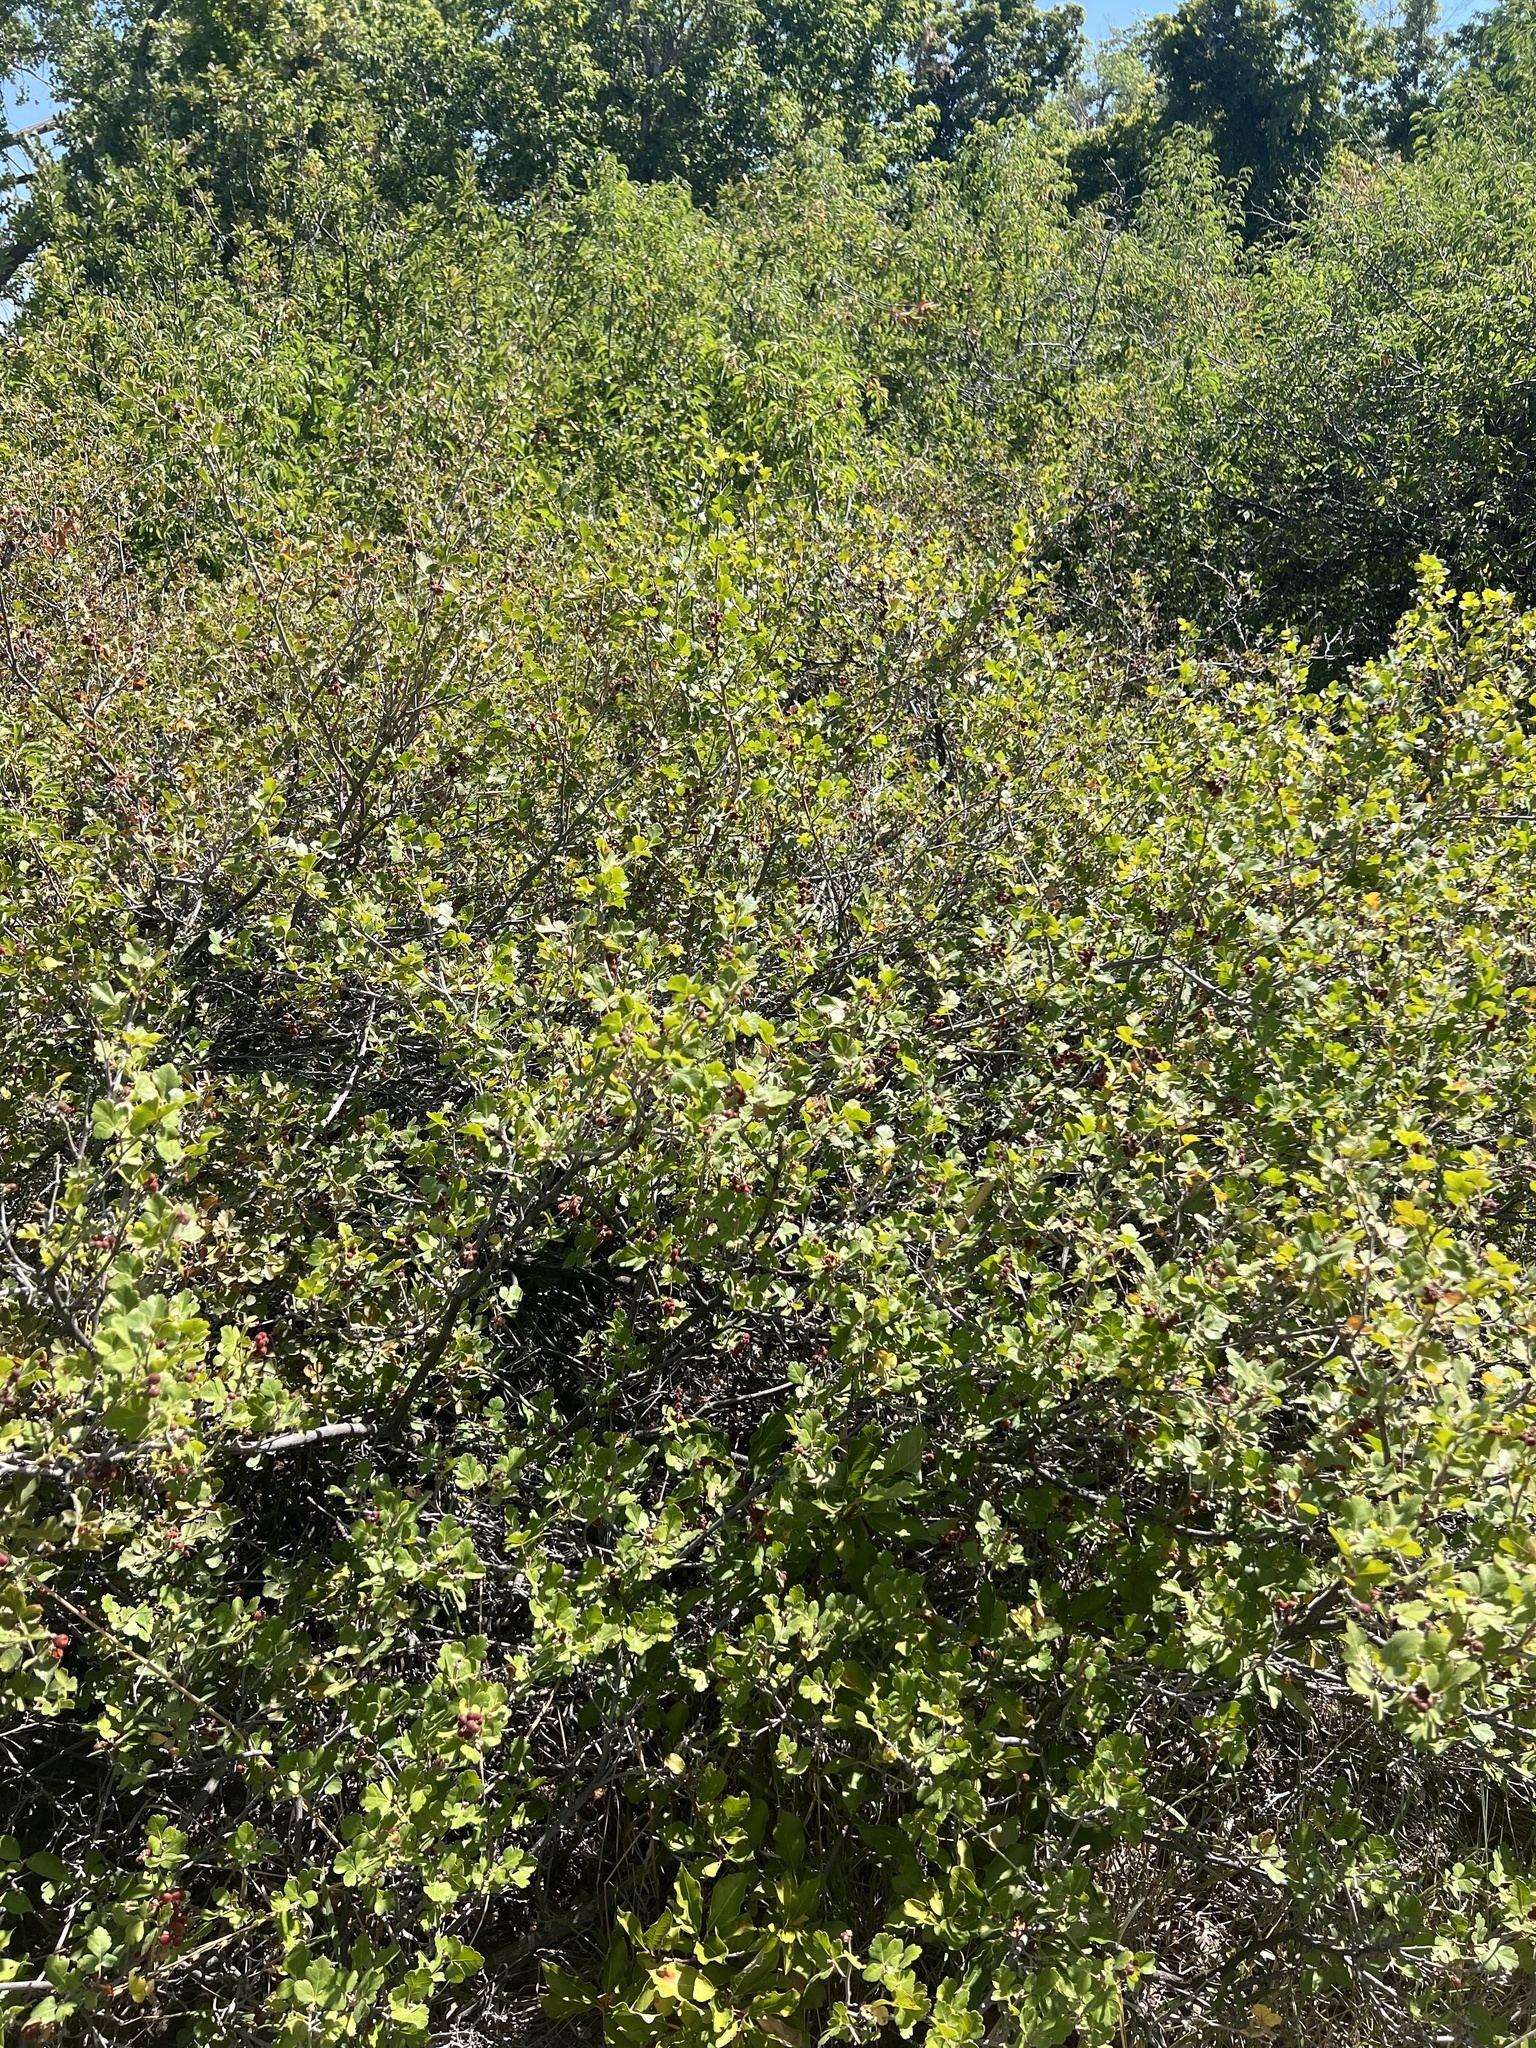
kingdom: Plantae
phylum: Tracheophyta
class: Magnoliopsida
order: Sapindales
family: Anacardiaceae
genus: Rhus
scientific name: Rhus trilobata
